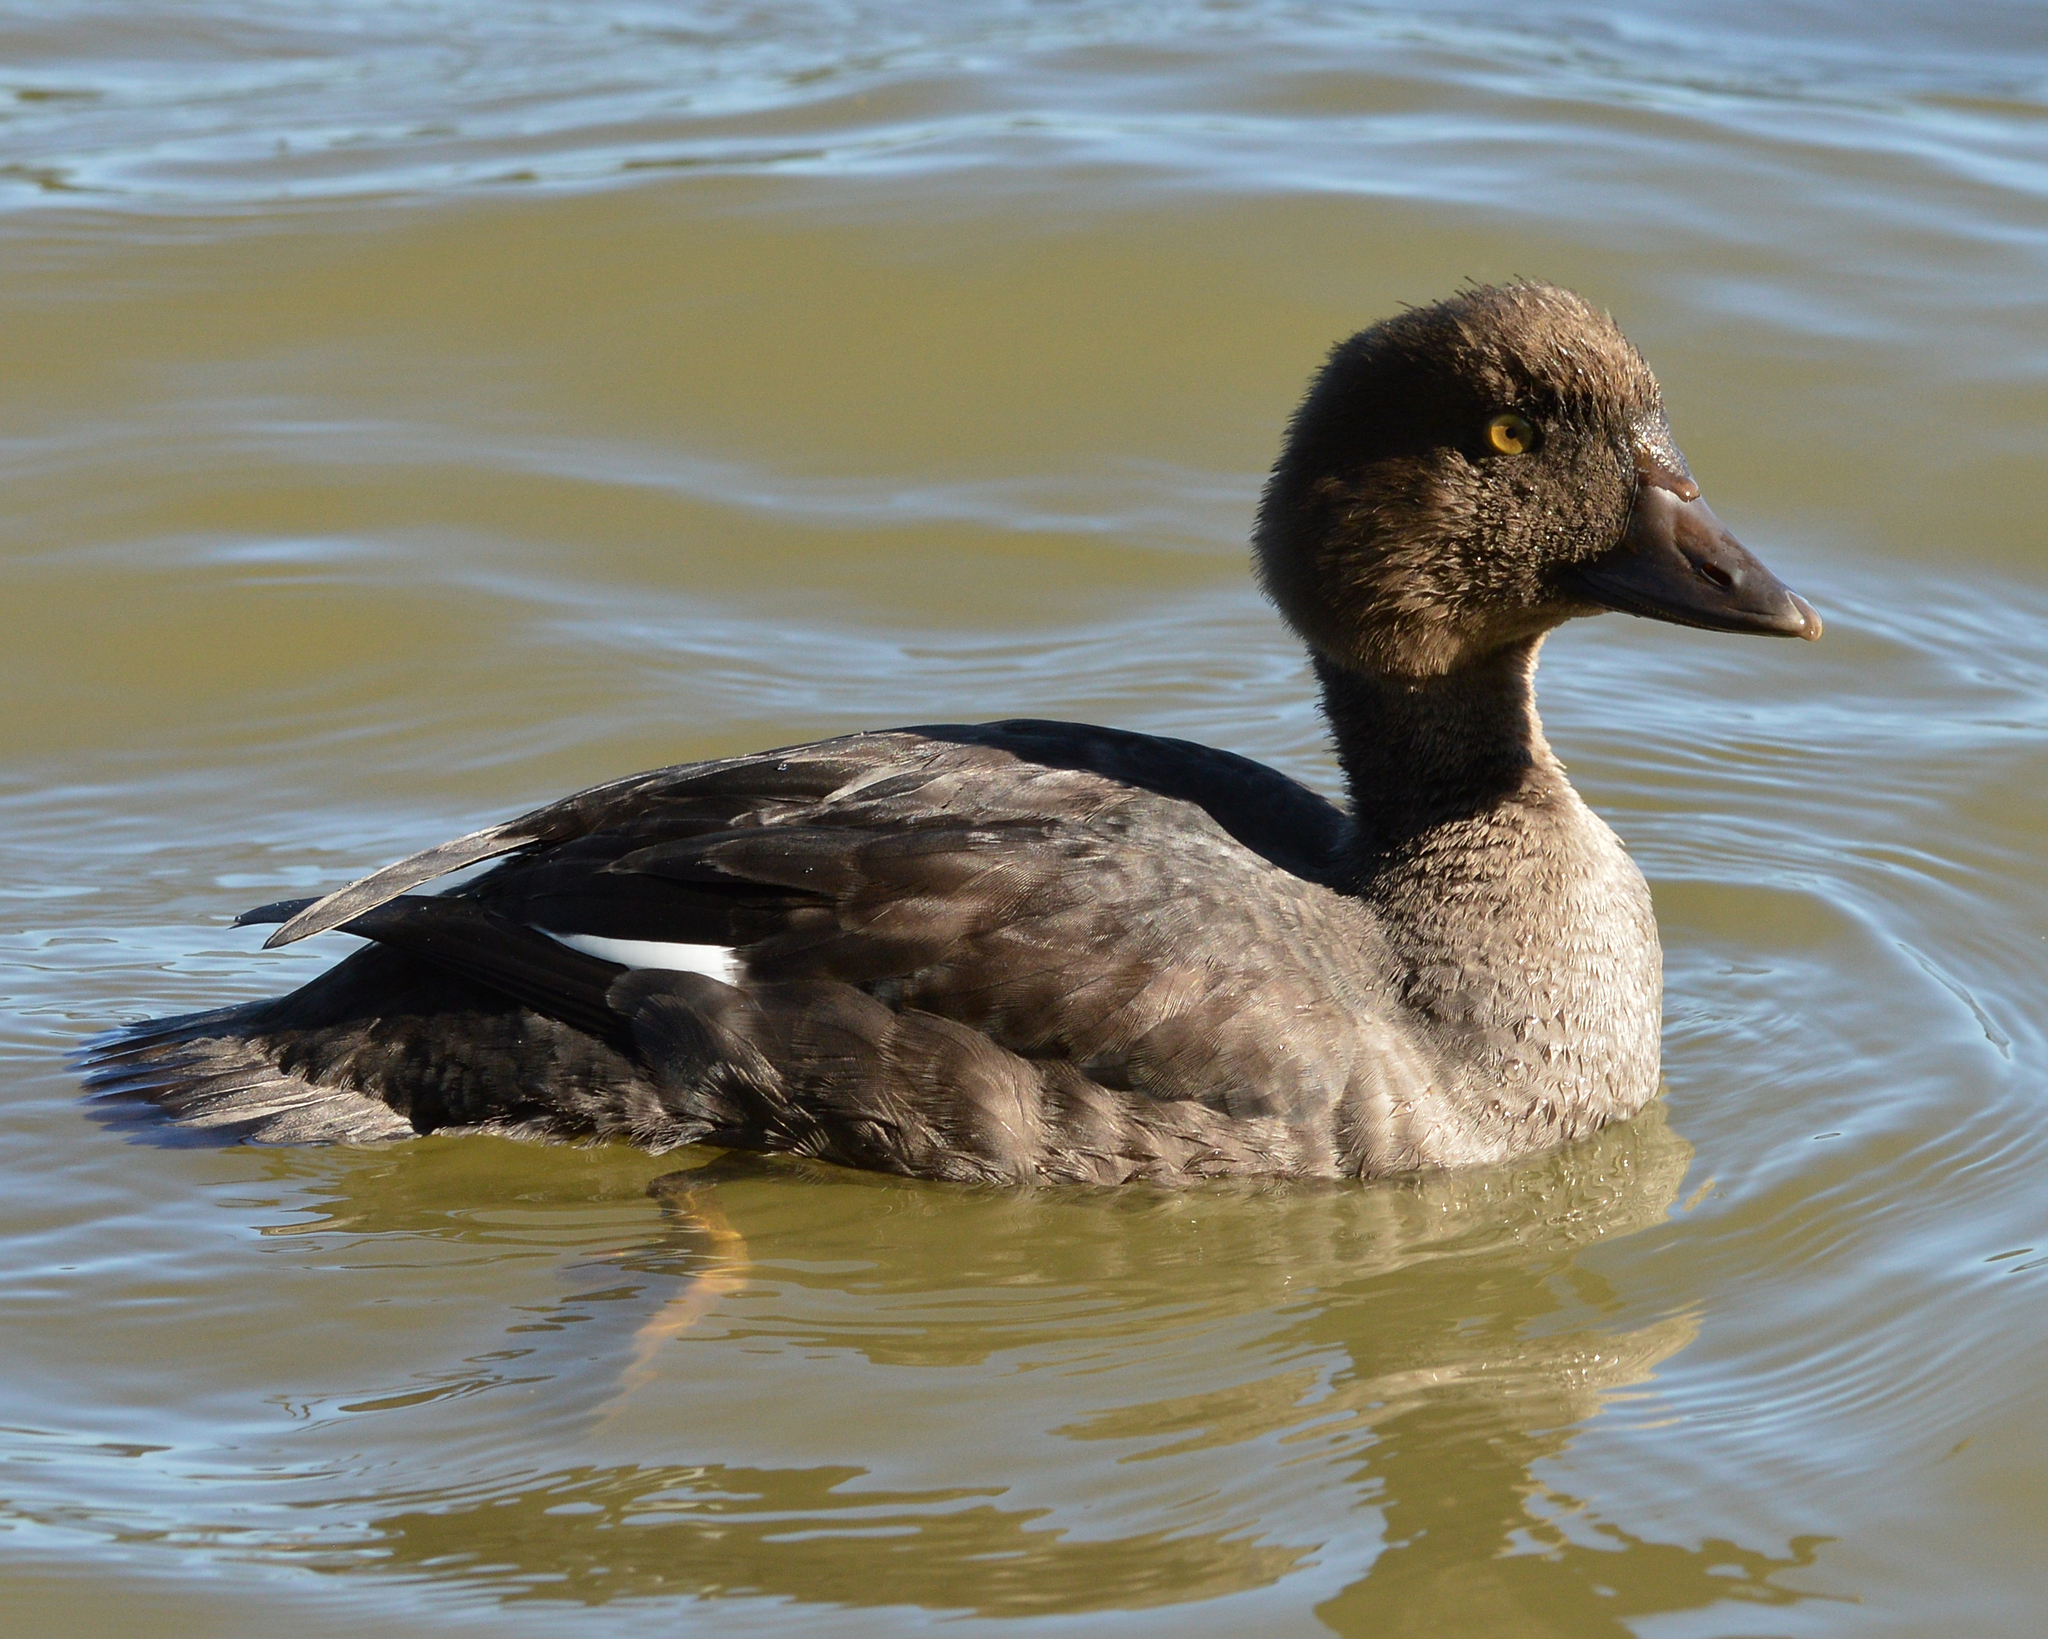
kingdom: Animalia
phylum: Chordata
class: Aves
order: Anseriformes
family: Anatidae
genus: Bucephala
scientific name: Bucephala clangula
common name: Common goldeneye
